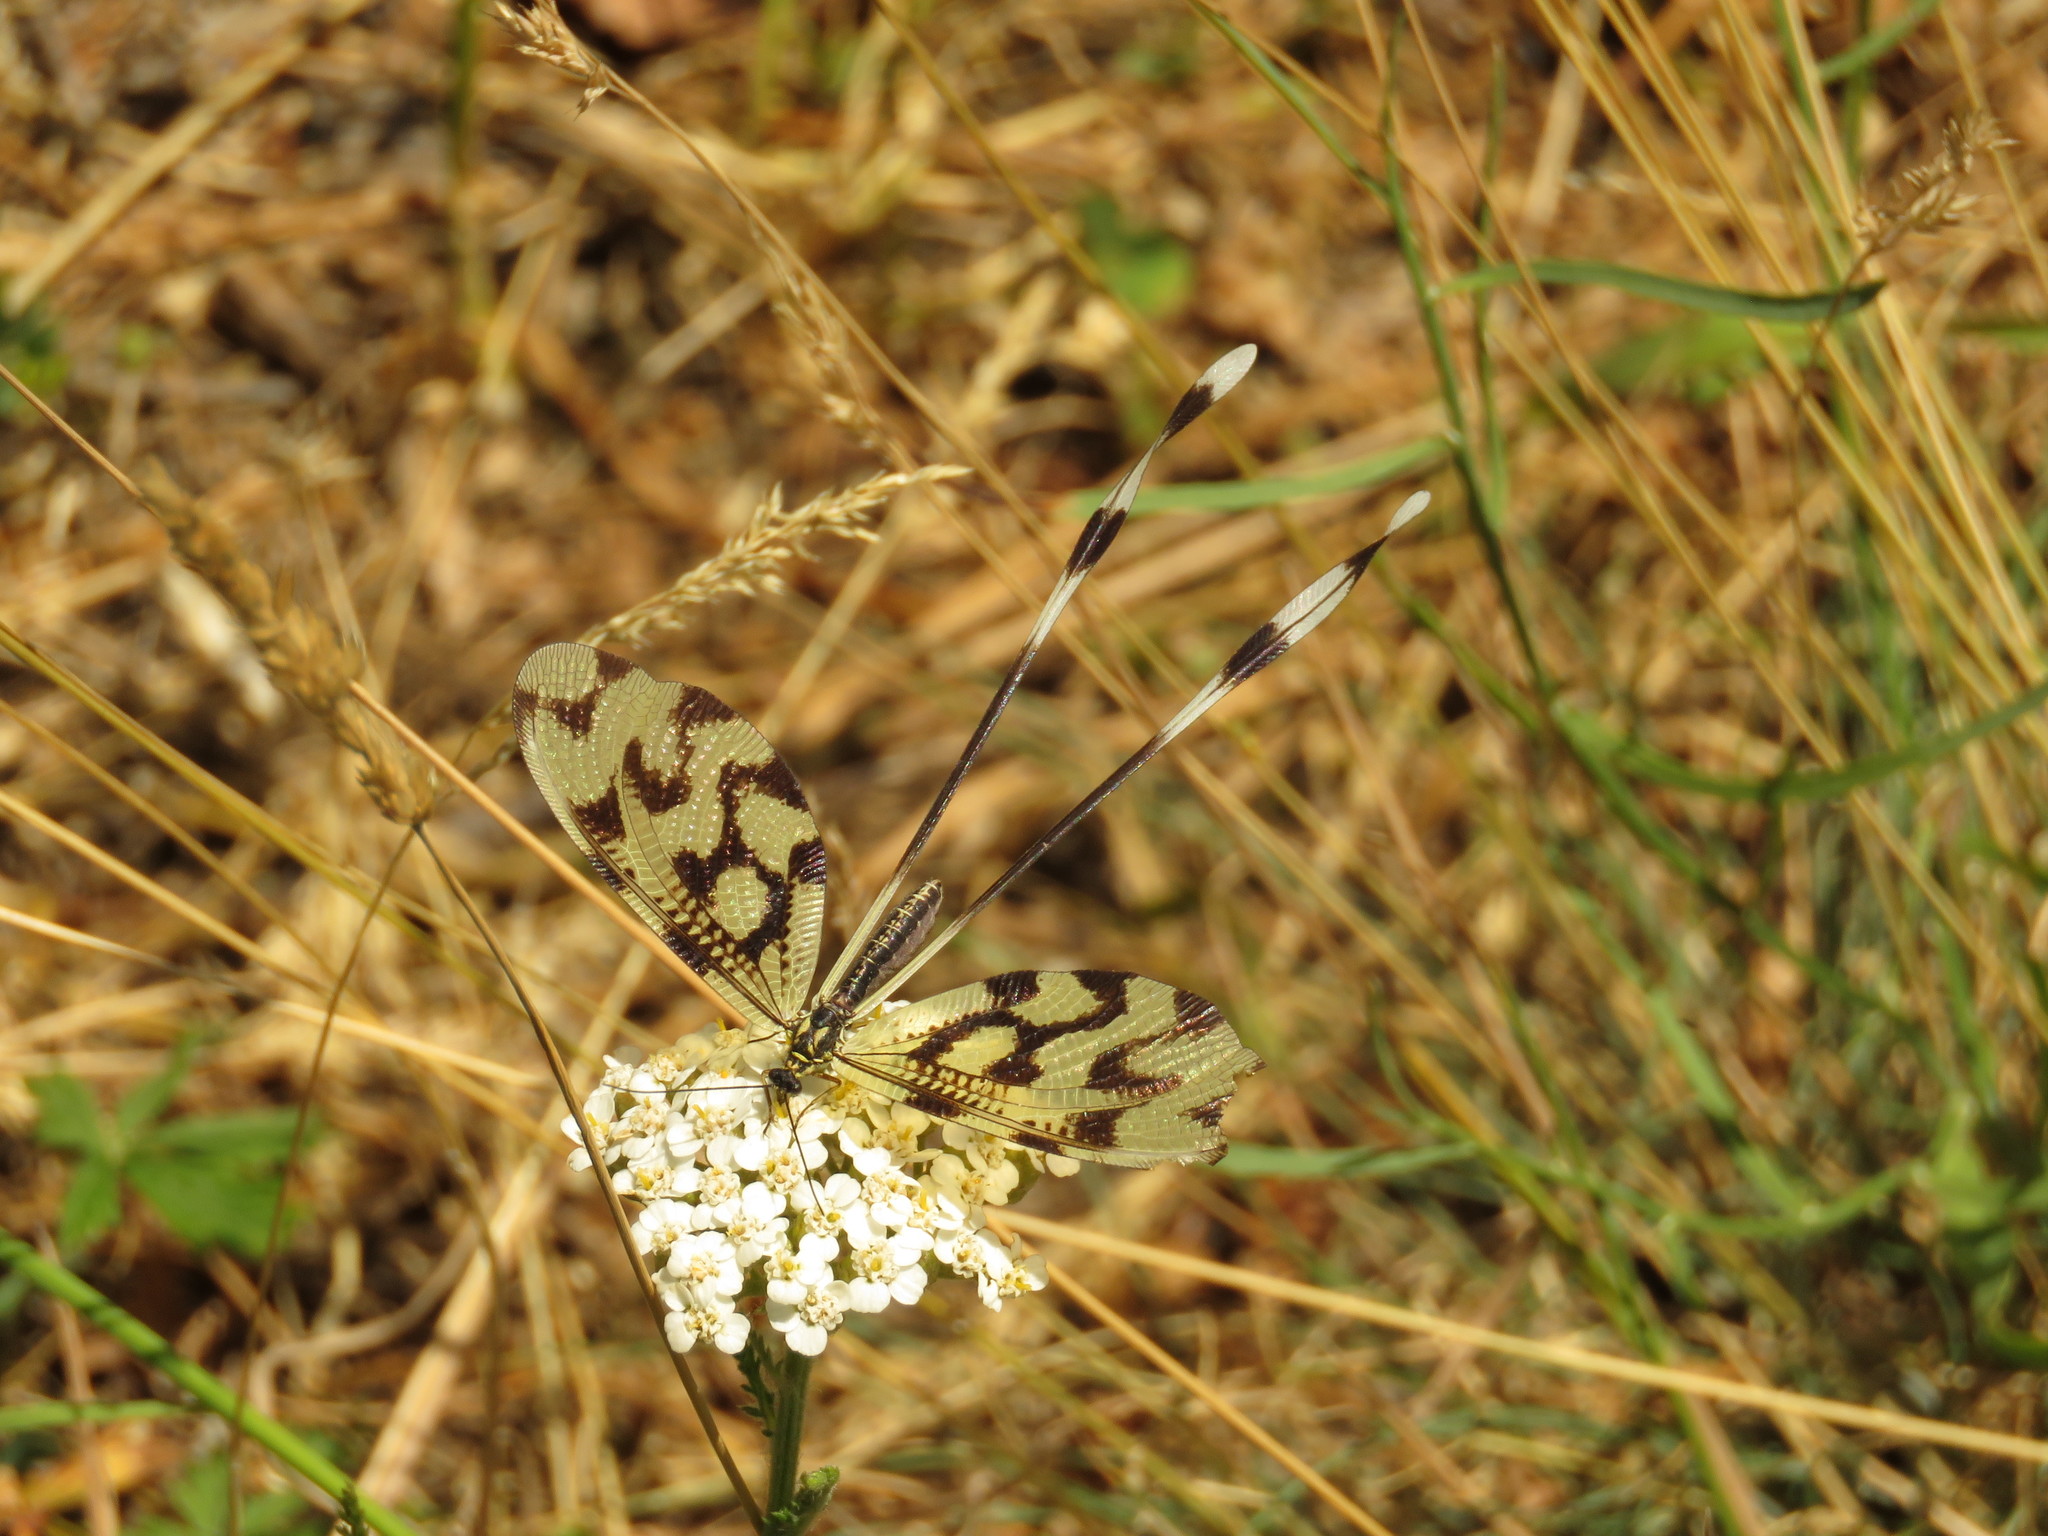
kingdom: Animalia
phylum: Arthropoda
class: Insecta
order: Neuroptera
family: Nemopteridae
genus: Nemoptera
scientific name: Nemoptera sinuata
